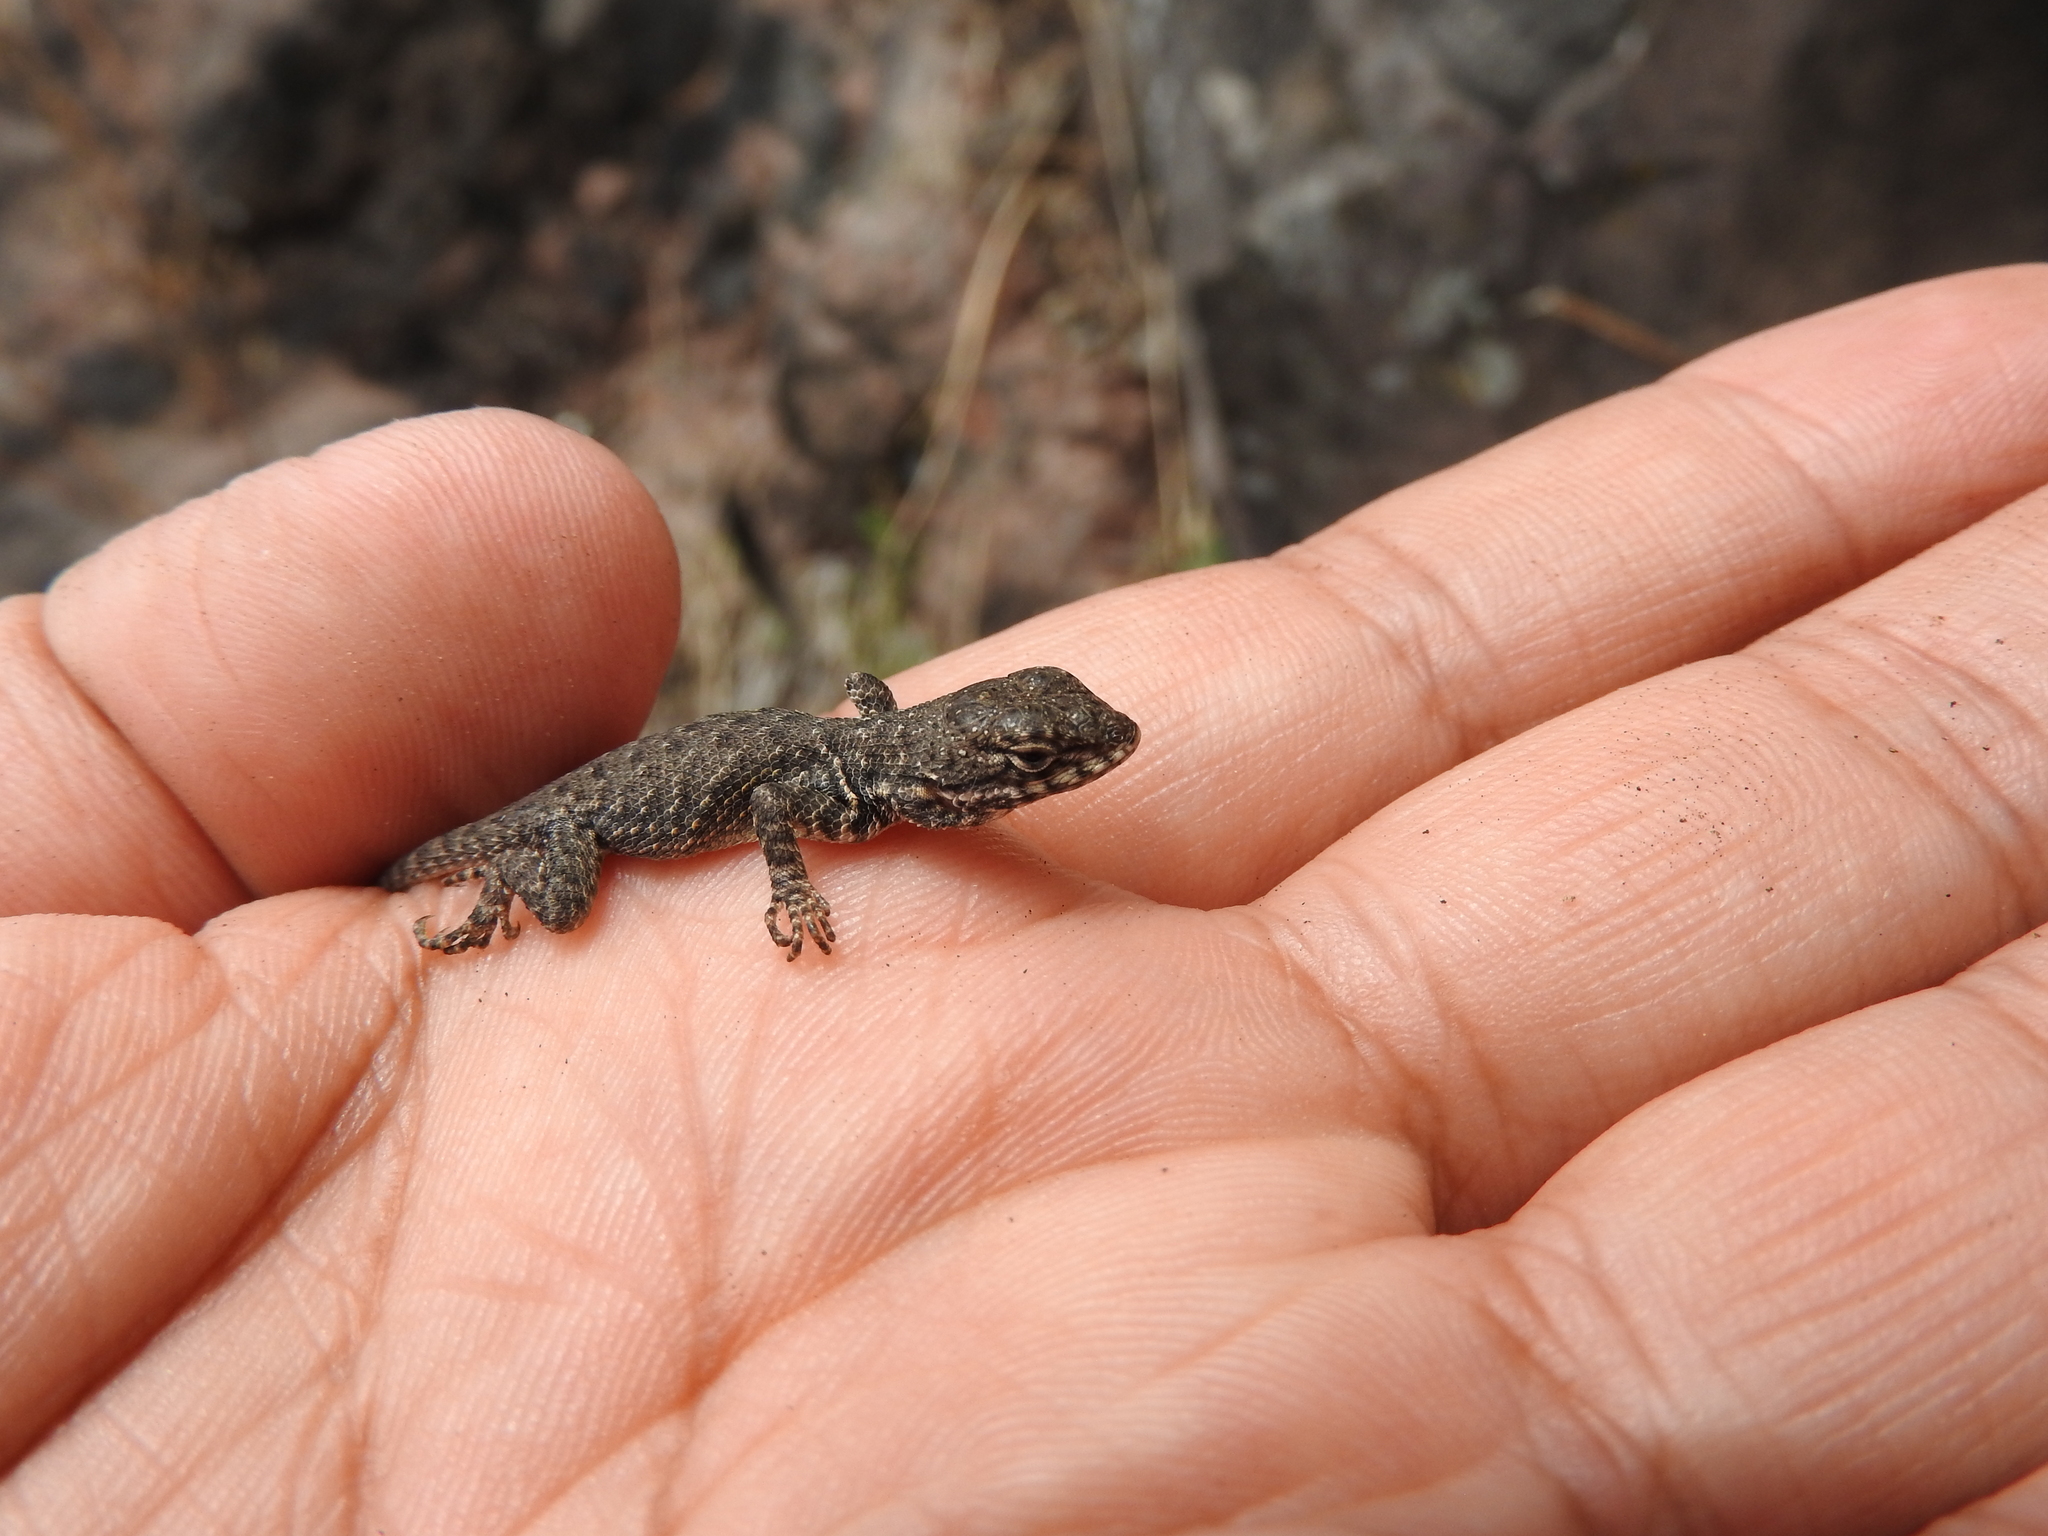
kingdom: Animalia
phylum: Chordata
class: Squamata
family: Phrynosomatidae
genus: Sceloporus
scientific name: Sceloporus dugesii
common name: Duges' spiny lizard
